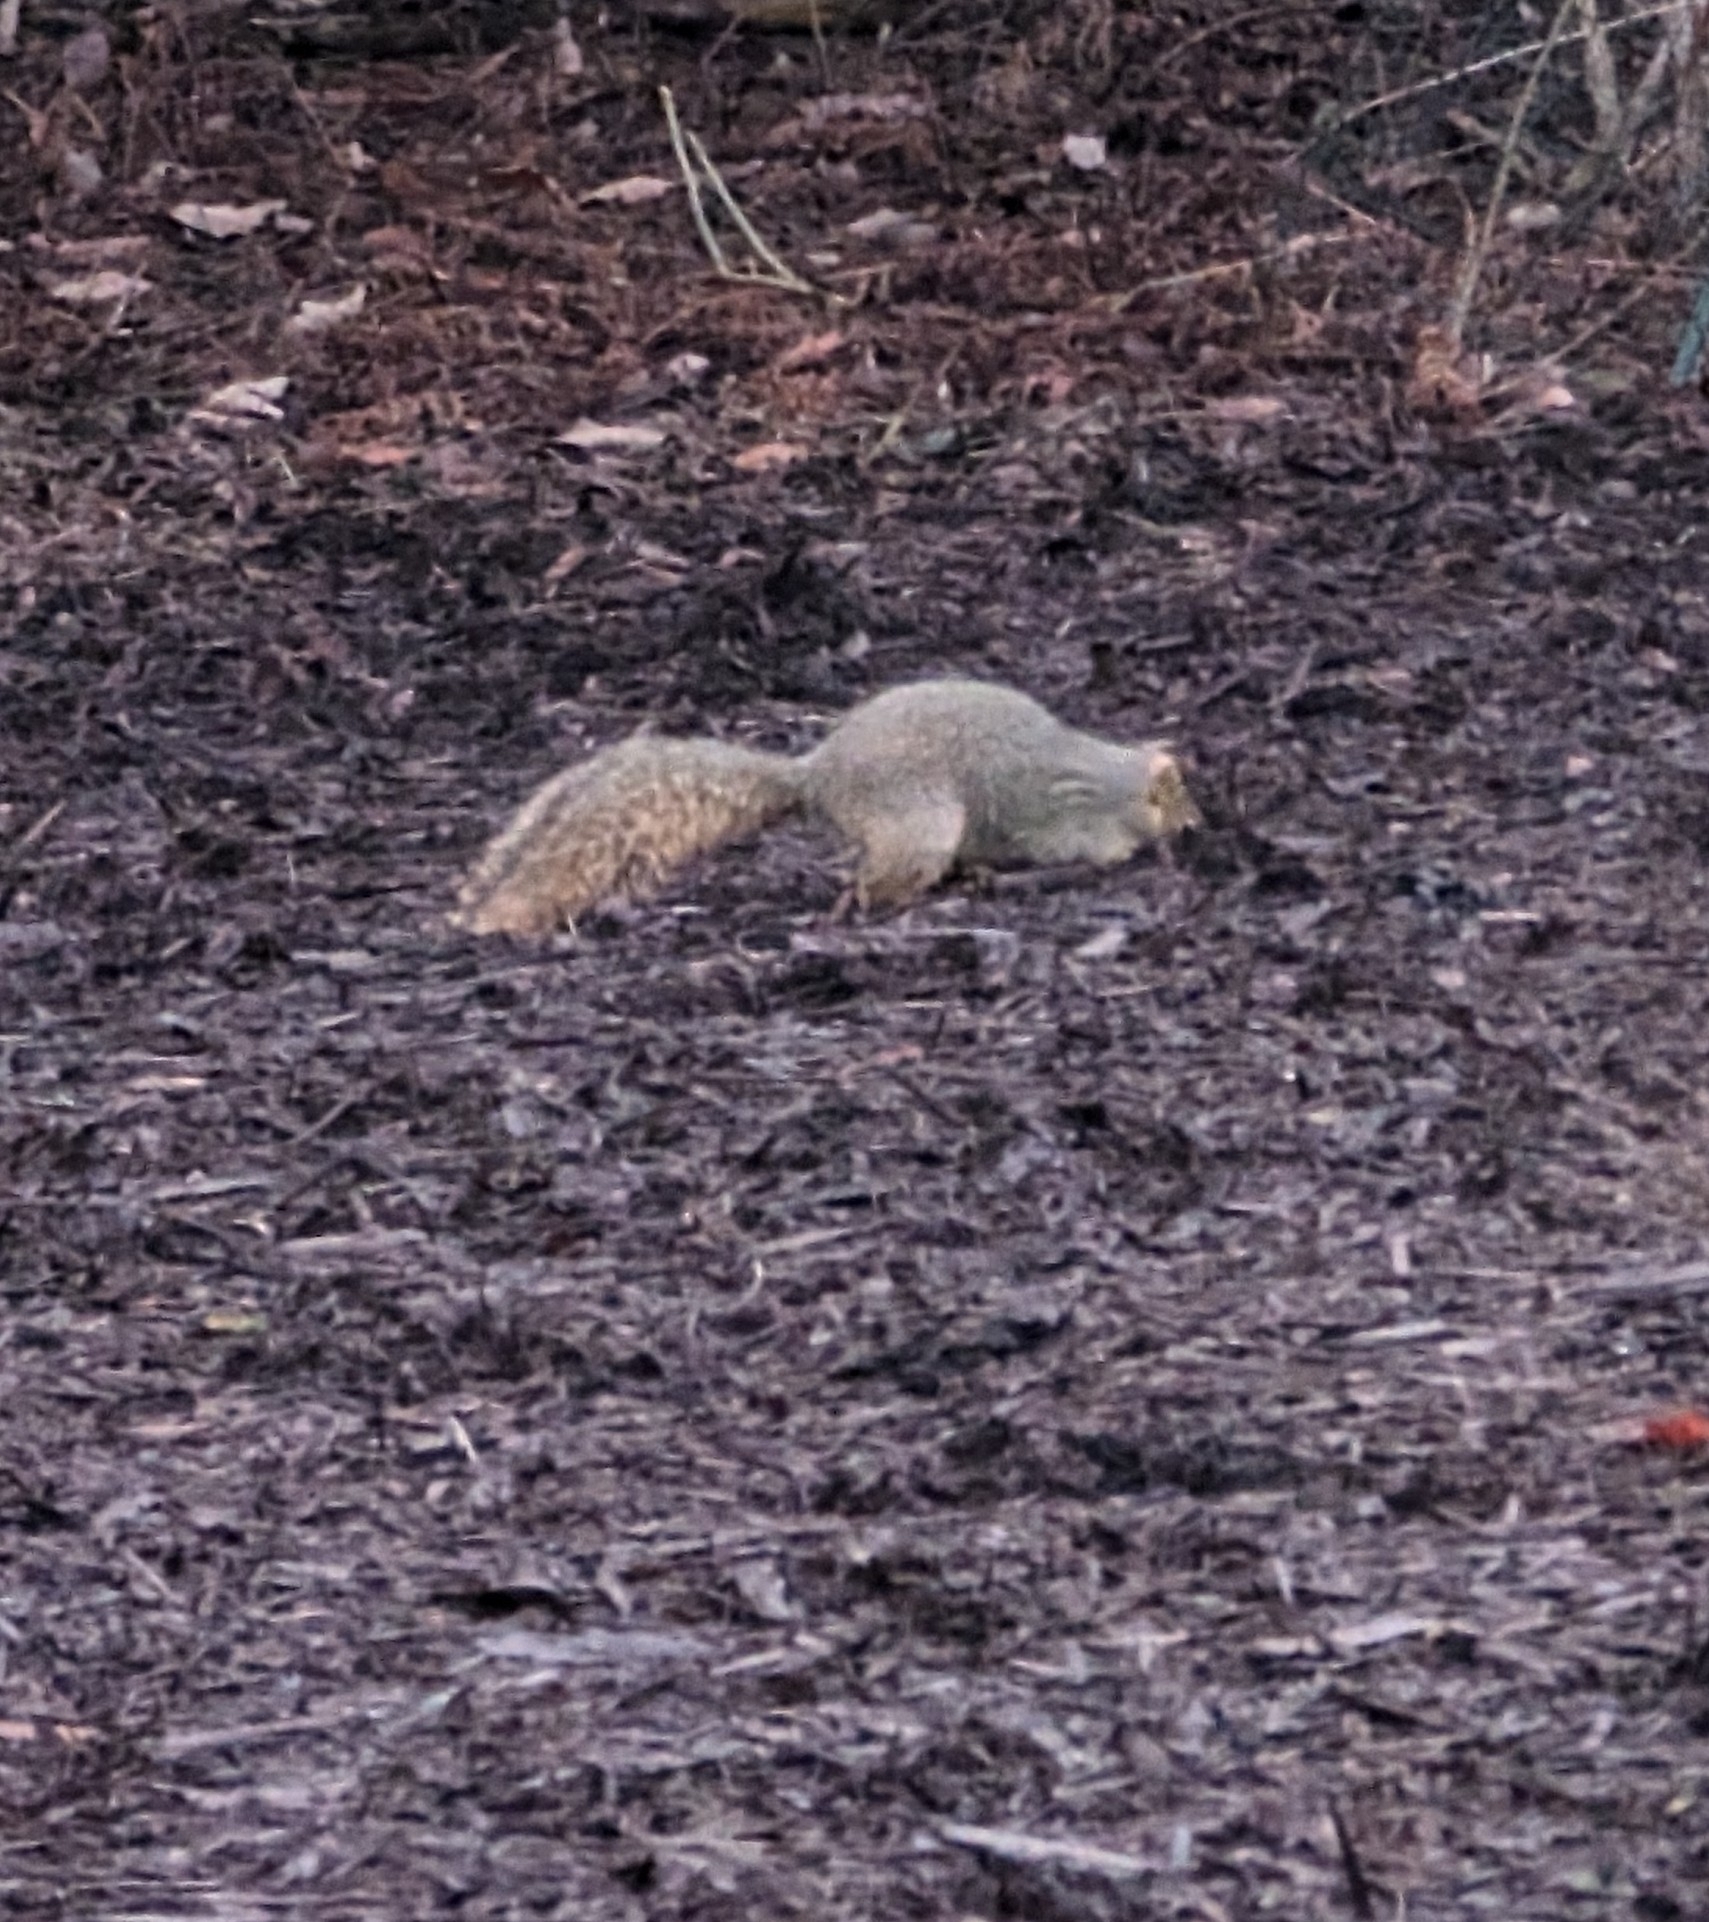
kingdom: Animalia
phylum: Chordata
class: Mammalia
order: Rodentia
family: Sciuridae
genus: Sciurus
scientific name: Sciurus niger
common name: Fox squirrel
